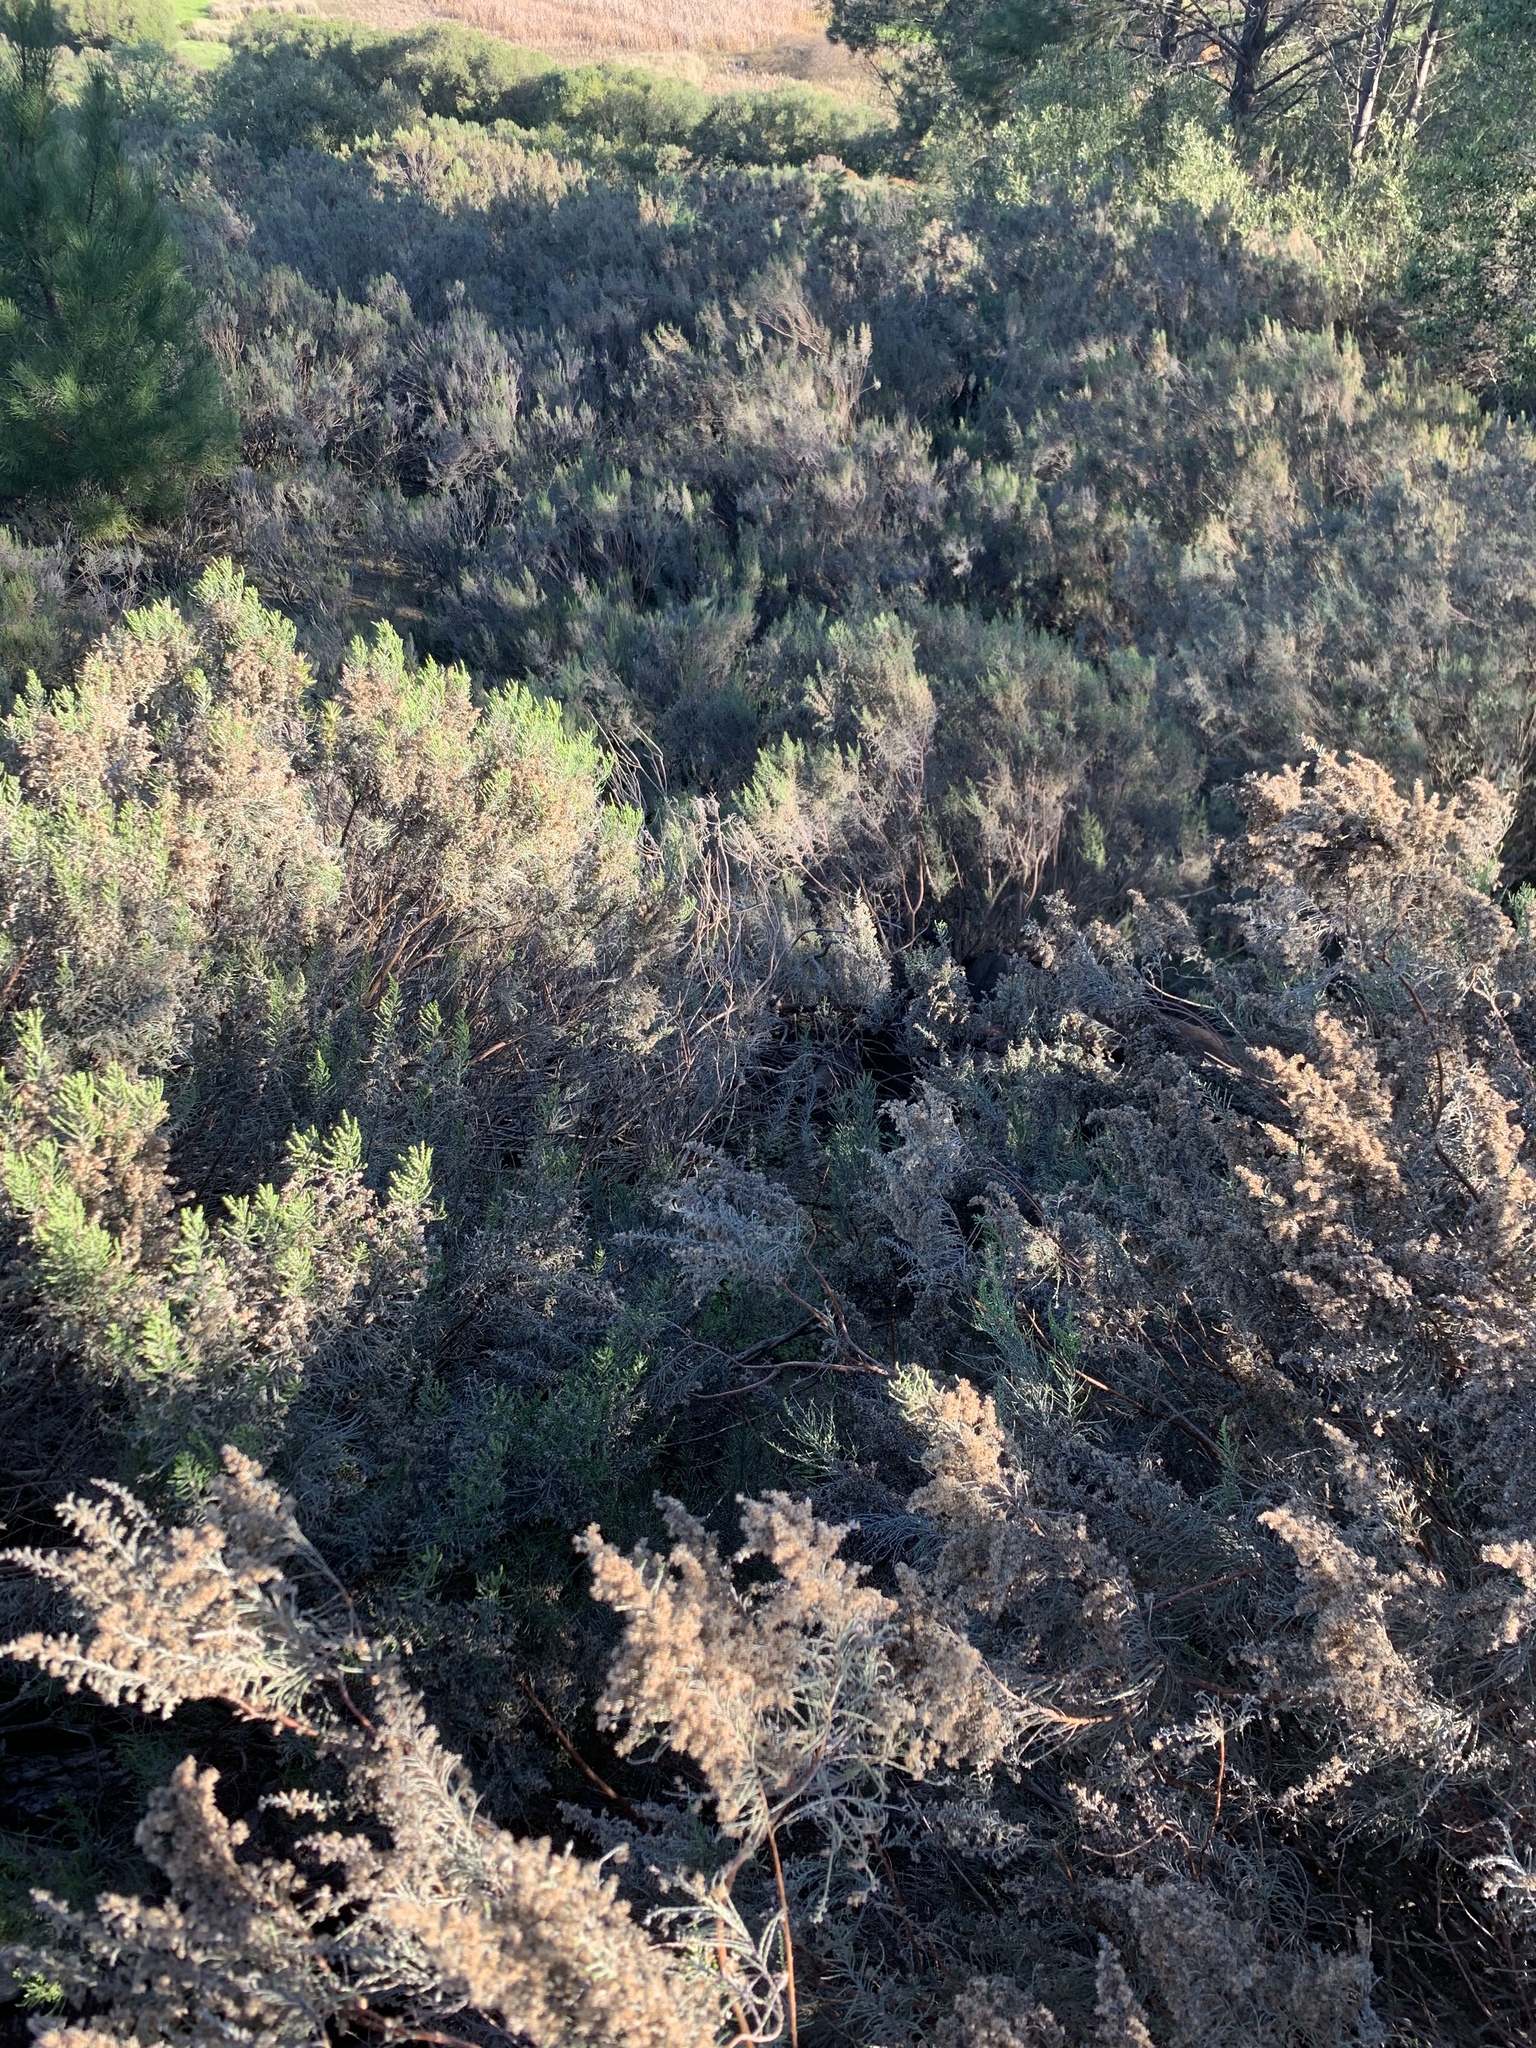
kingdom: Plantae
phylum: Tracheophyta
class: Magnoliopsida
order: Asterales
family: Asteraceae
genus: Dicerothamnus
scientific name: Dicerothamnus rhinocerotis
